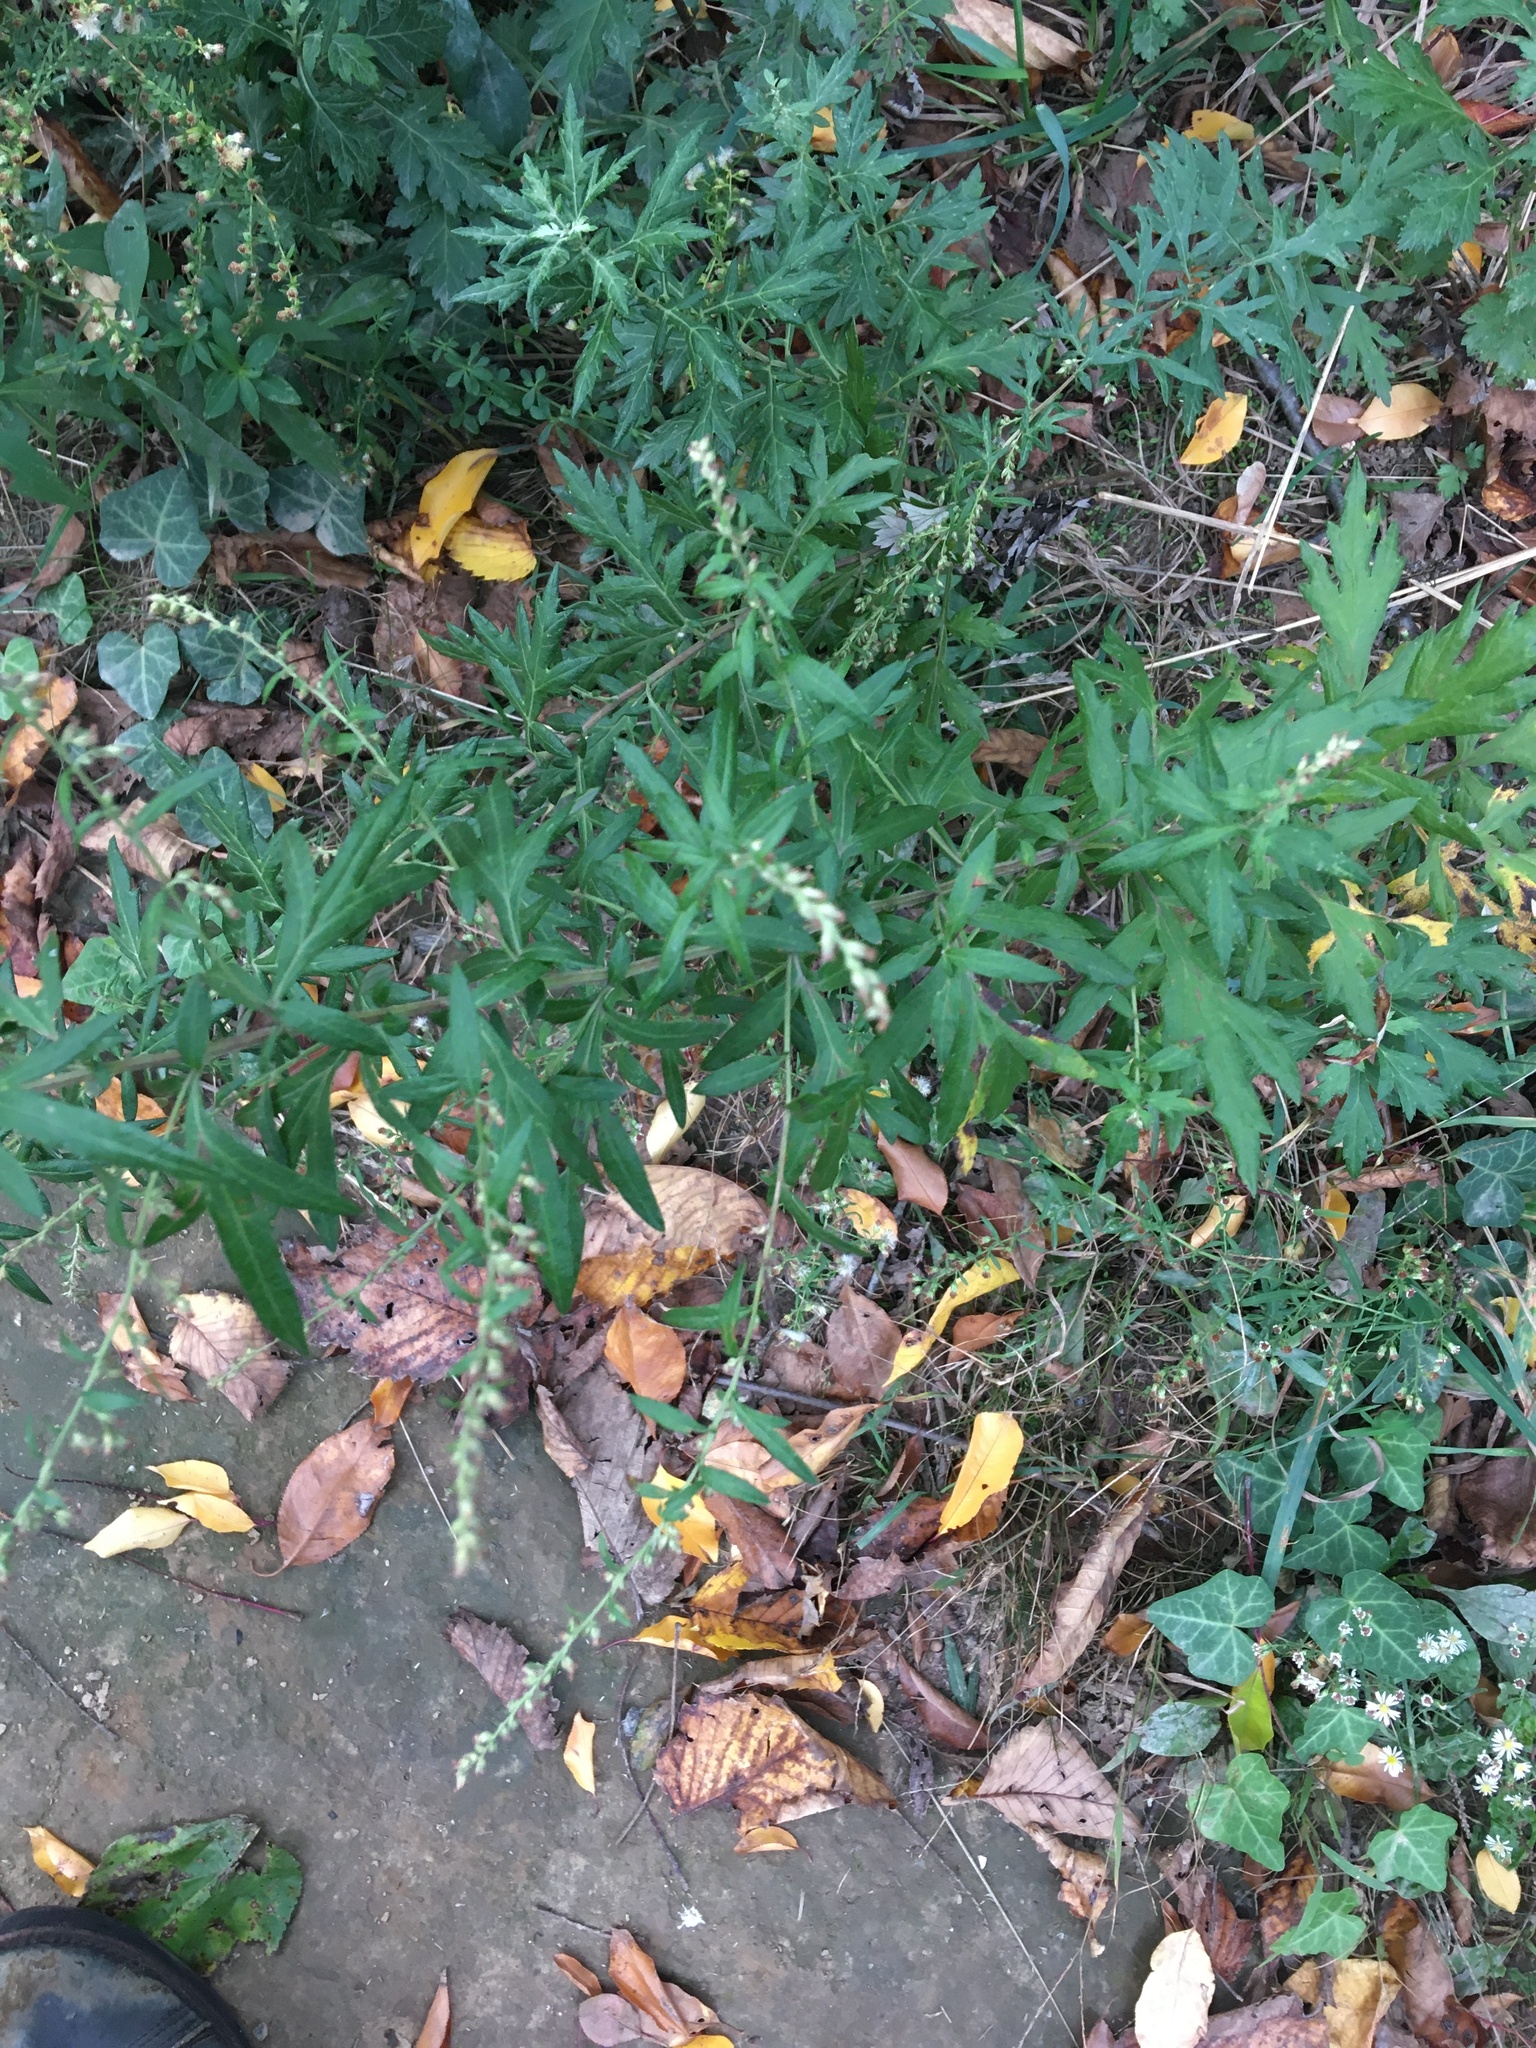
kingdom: Plantae
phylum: Tracheophyta
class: Magnoliopsida
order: Asterales
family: Asteraceae
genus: Artemisia
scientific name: Artemisia vulgaris
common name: Mugwort
